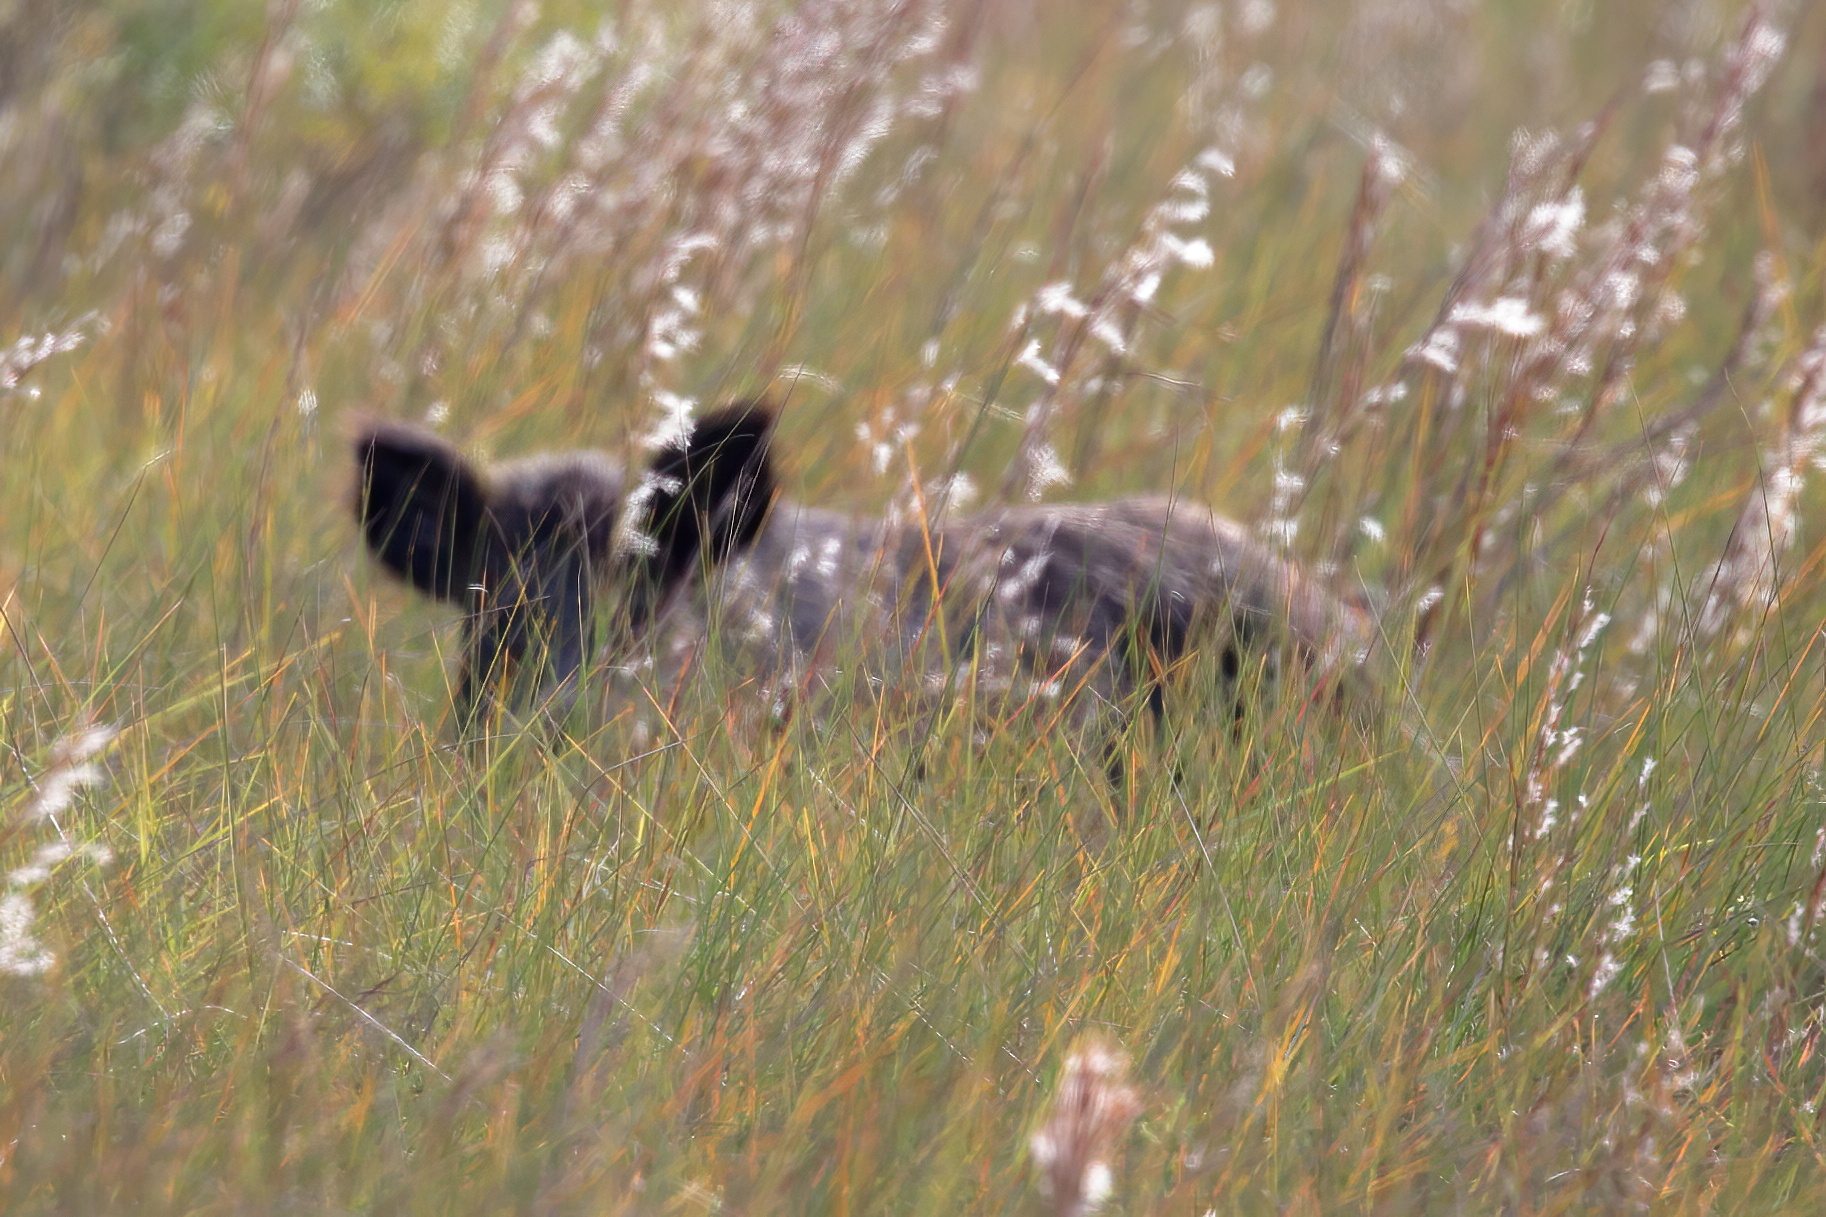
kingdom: Animalia
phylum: Chordata
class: Mammalia
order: Artiodactyla
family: Suidae
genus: Sus
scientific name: Sus scrofa
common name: Wild boar
